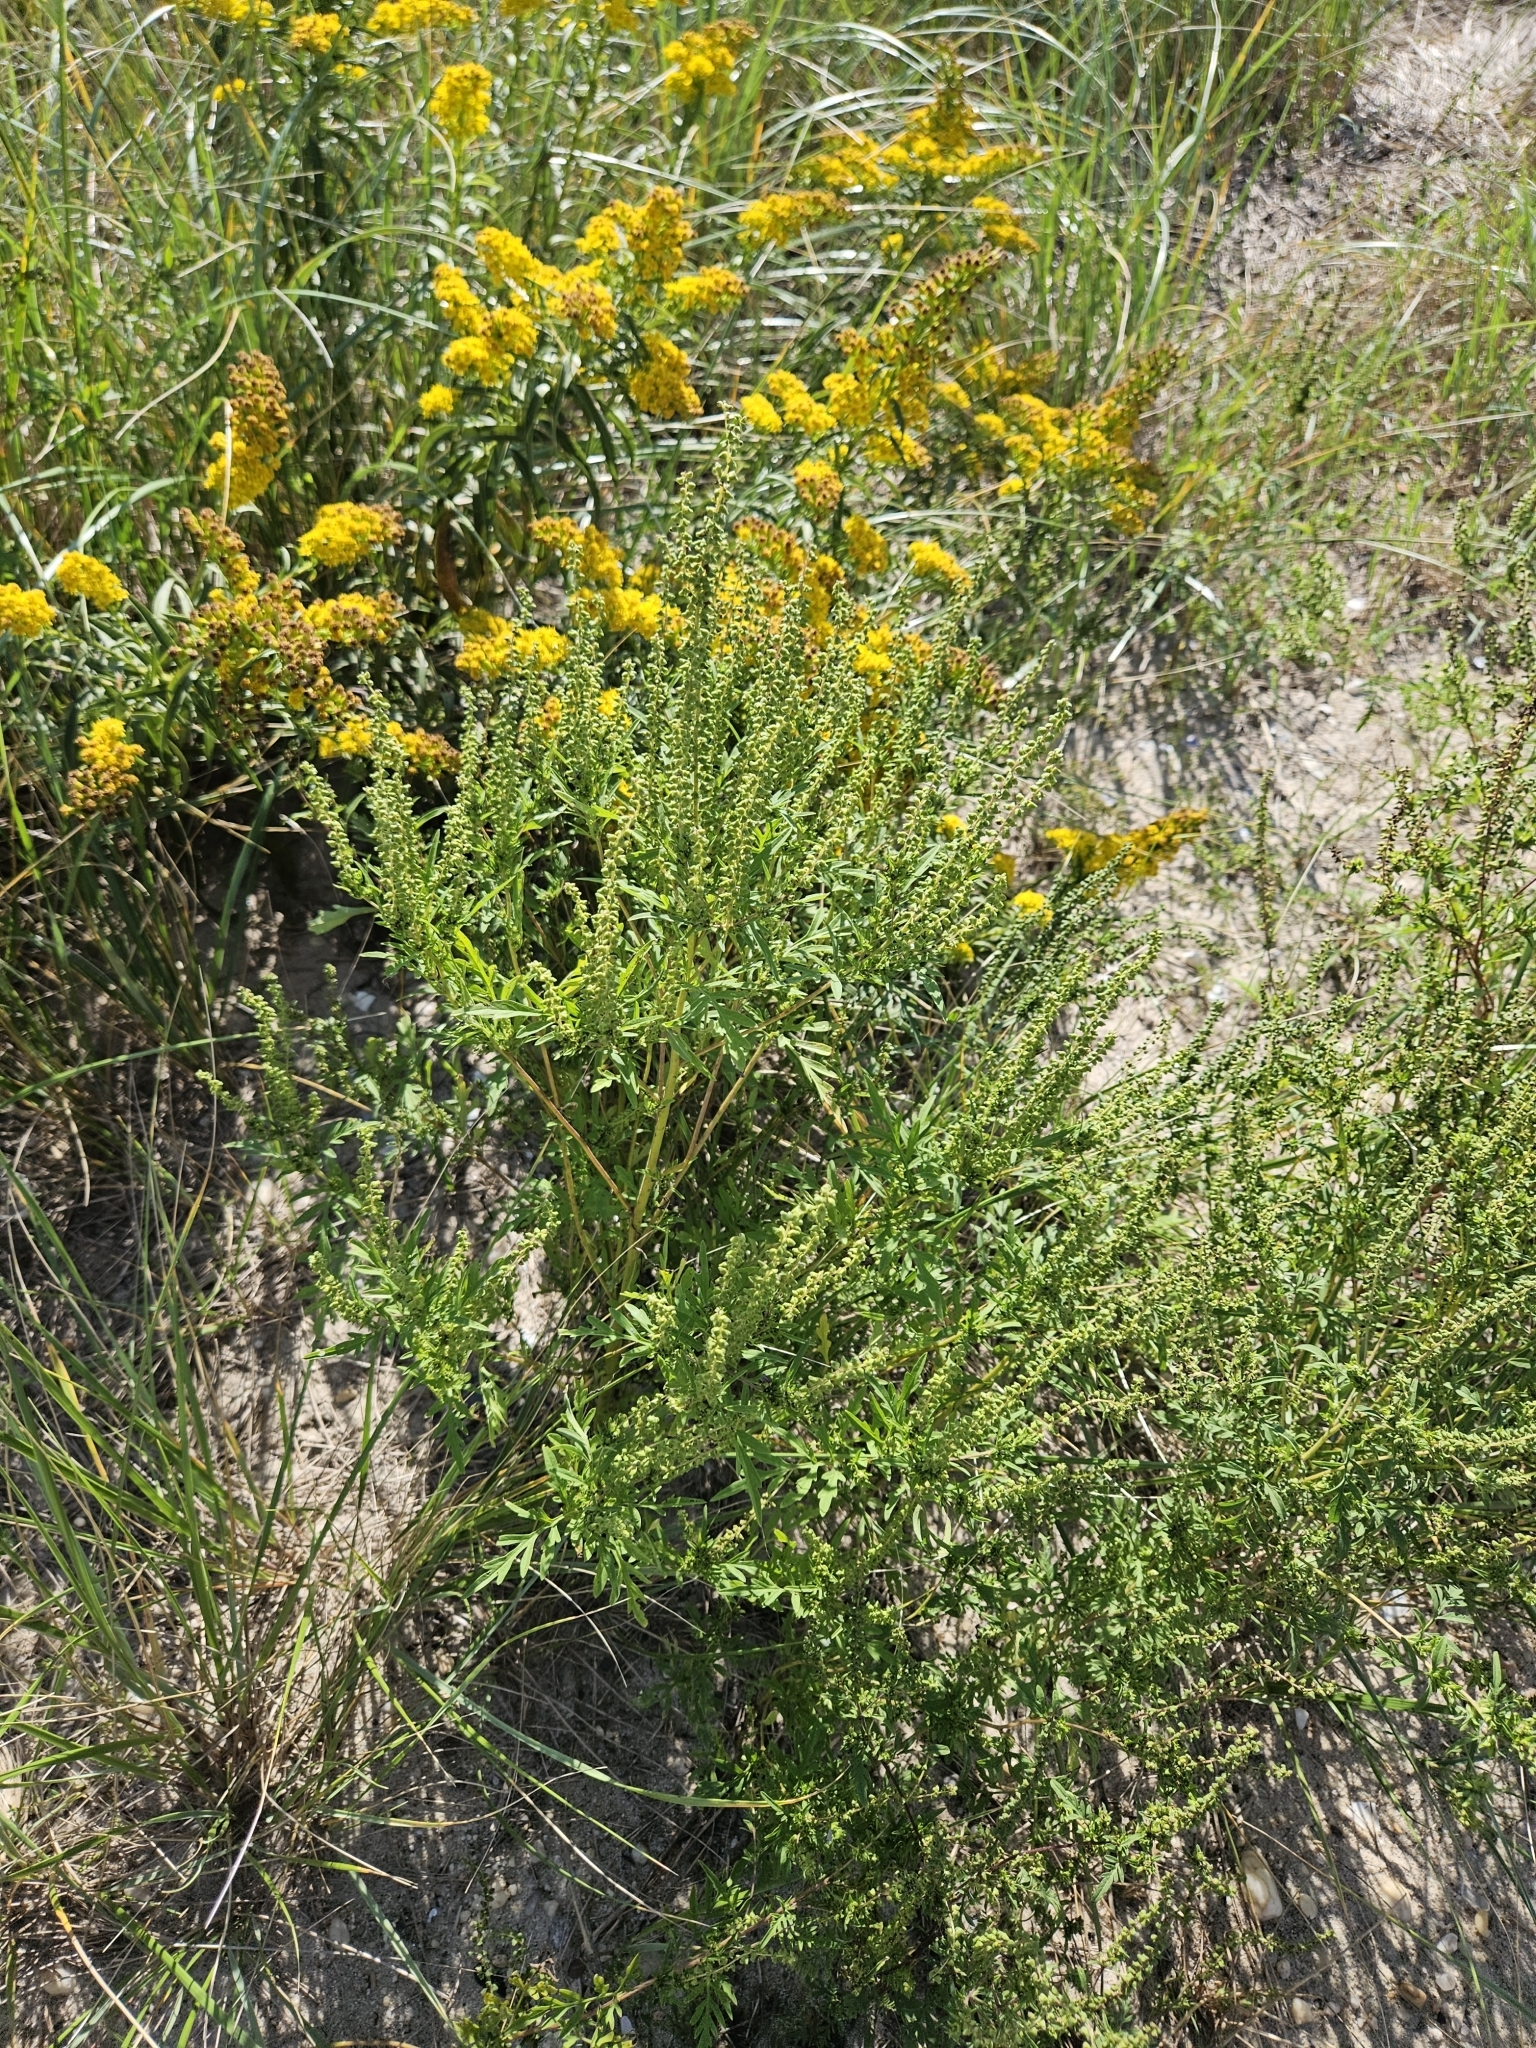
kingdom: Plantae
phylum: Tracheophyta
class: Magnoliopsida
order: Asterales
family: Asteraceae
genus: Ambrosia
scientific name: Ambrosia artemisiifolia
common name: Annual ragweed
